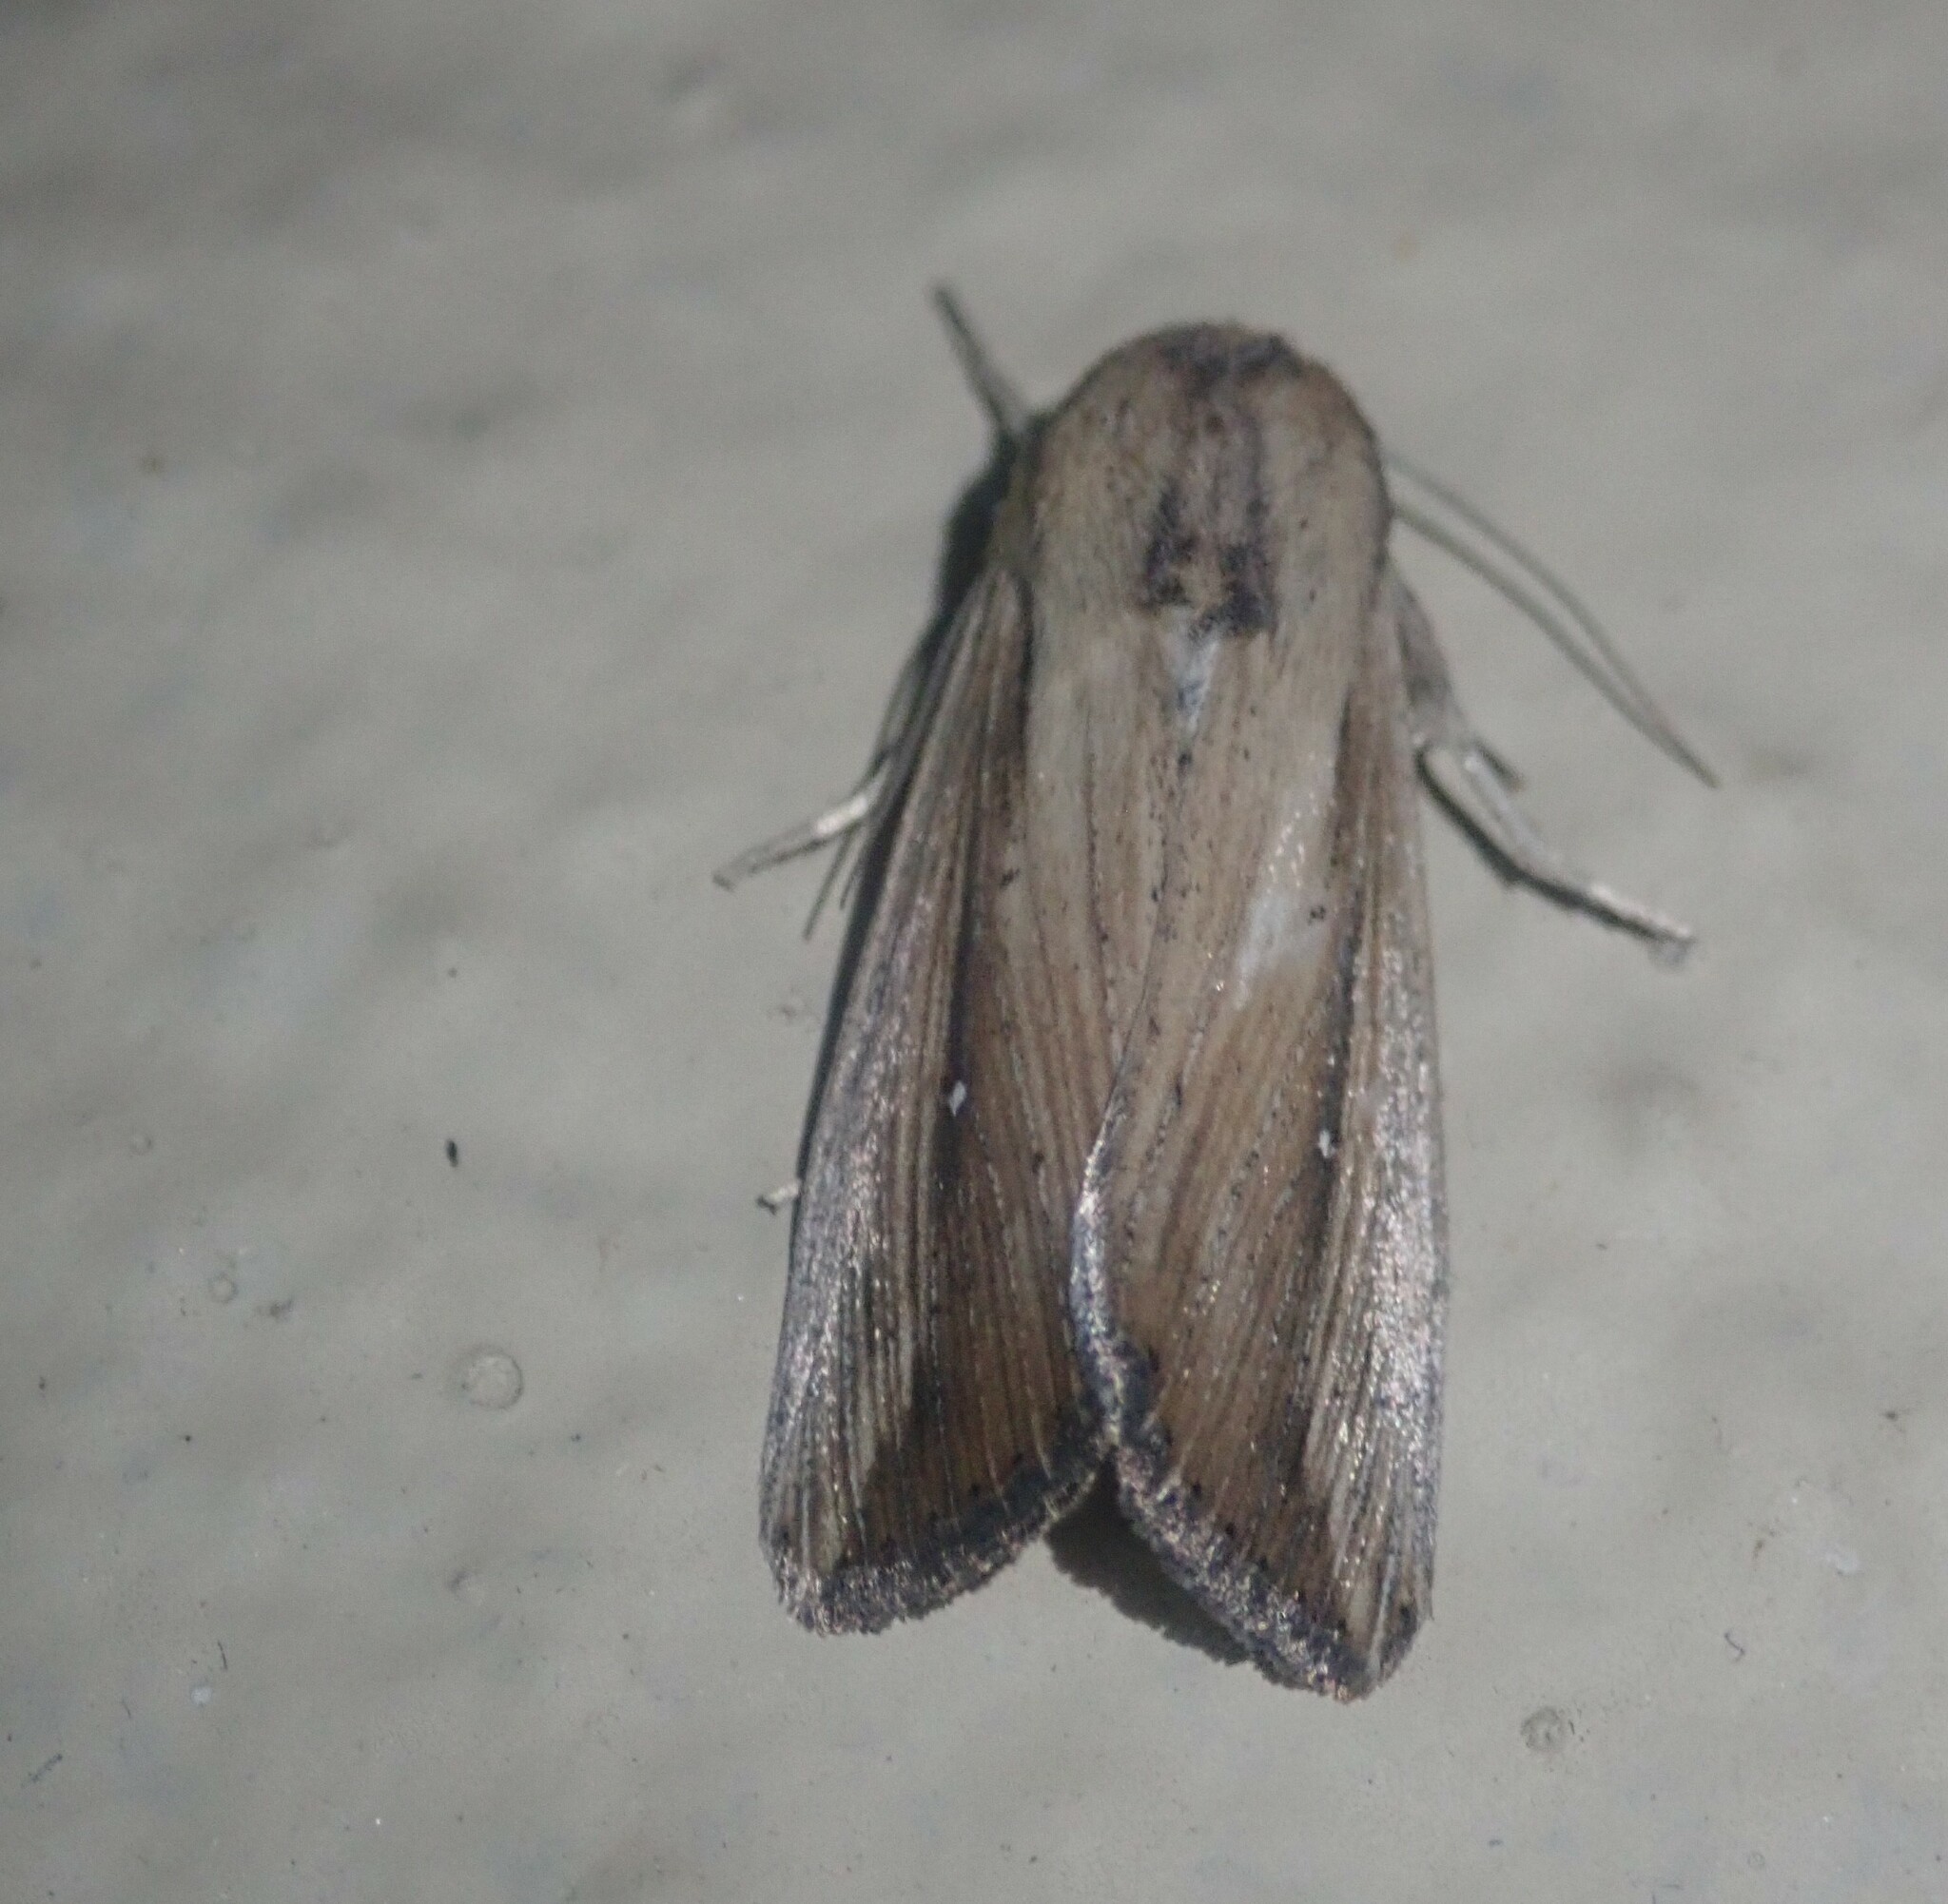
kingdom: Animalia
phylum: Arthropoda
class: Insecta
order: Lepidoptera
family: Noctuidae
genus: Leucania
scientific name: Leucania loreyi
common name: The cosmopolitan
